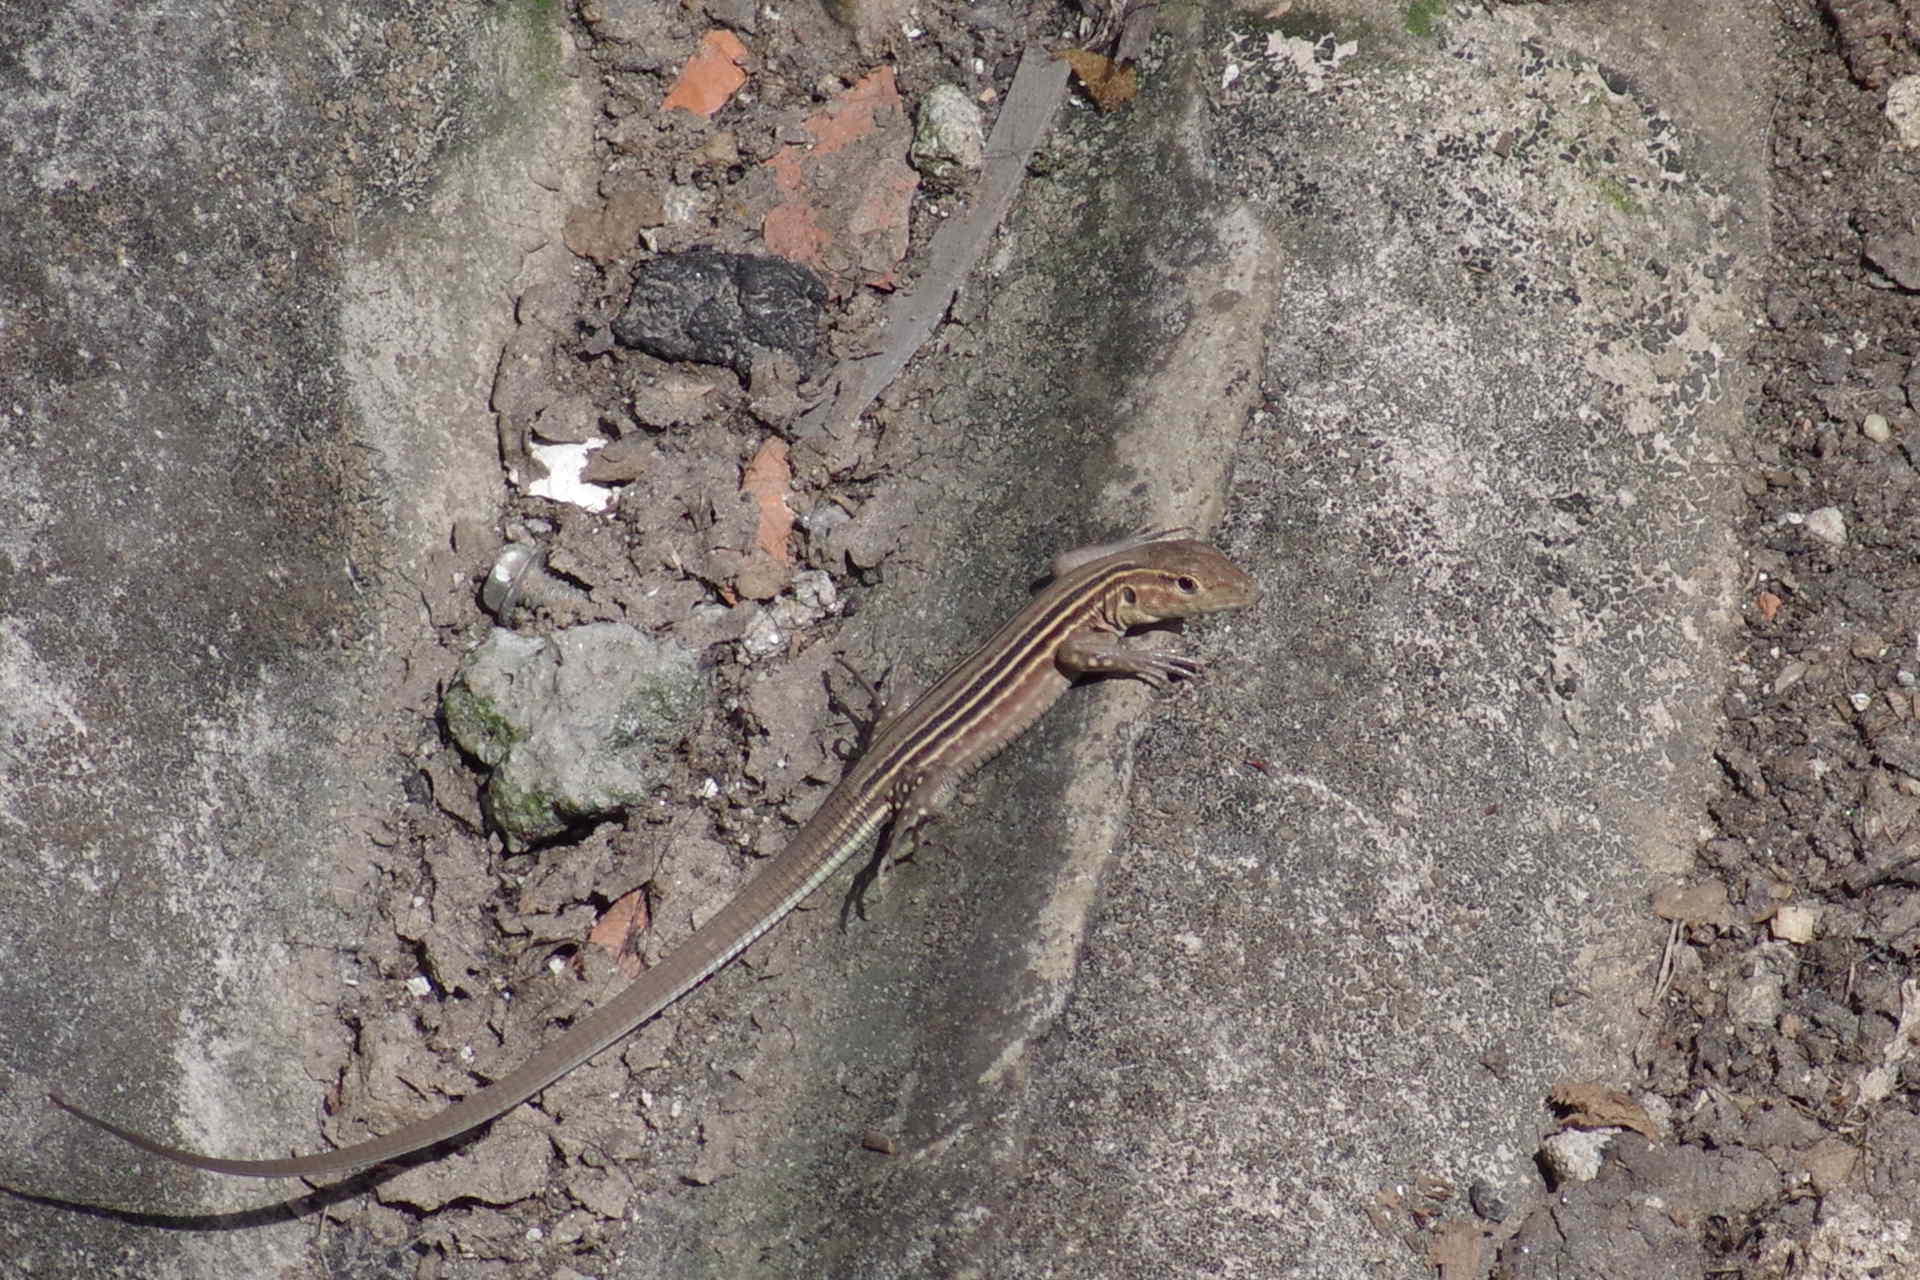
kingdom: Animalia
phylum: Chordata
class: Squamata
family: Teiidae
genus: Cnemidophorus
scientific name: Cnemidophorus lemniscatus
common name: Rainbow whiptail
